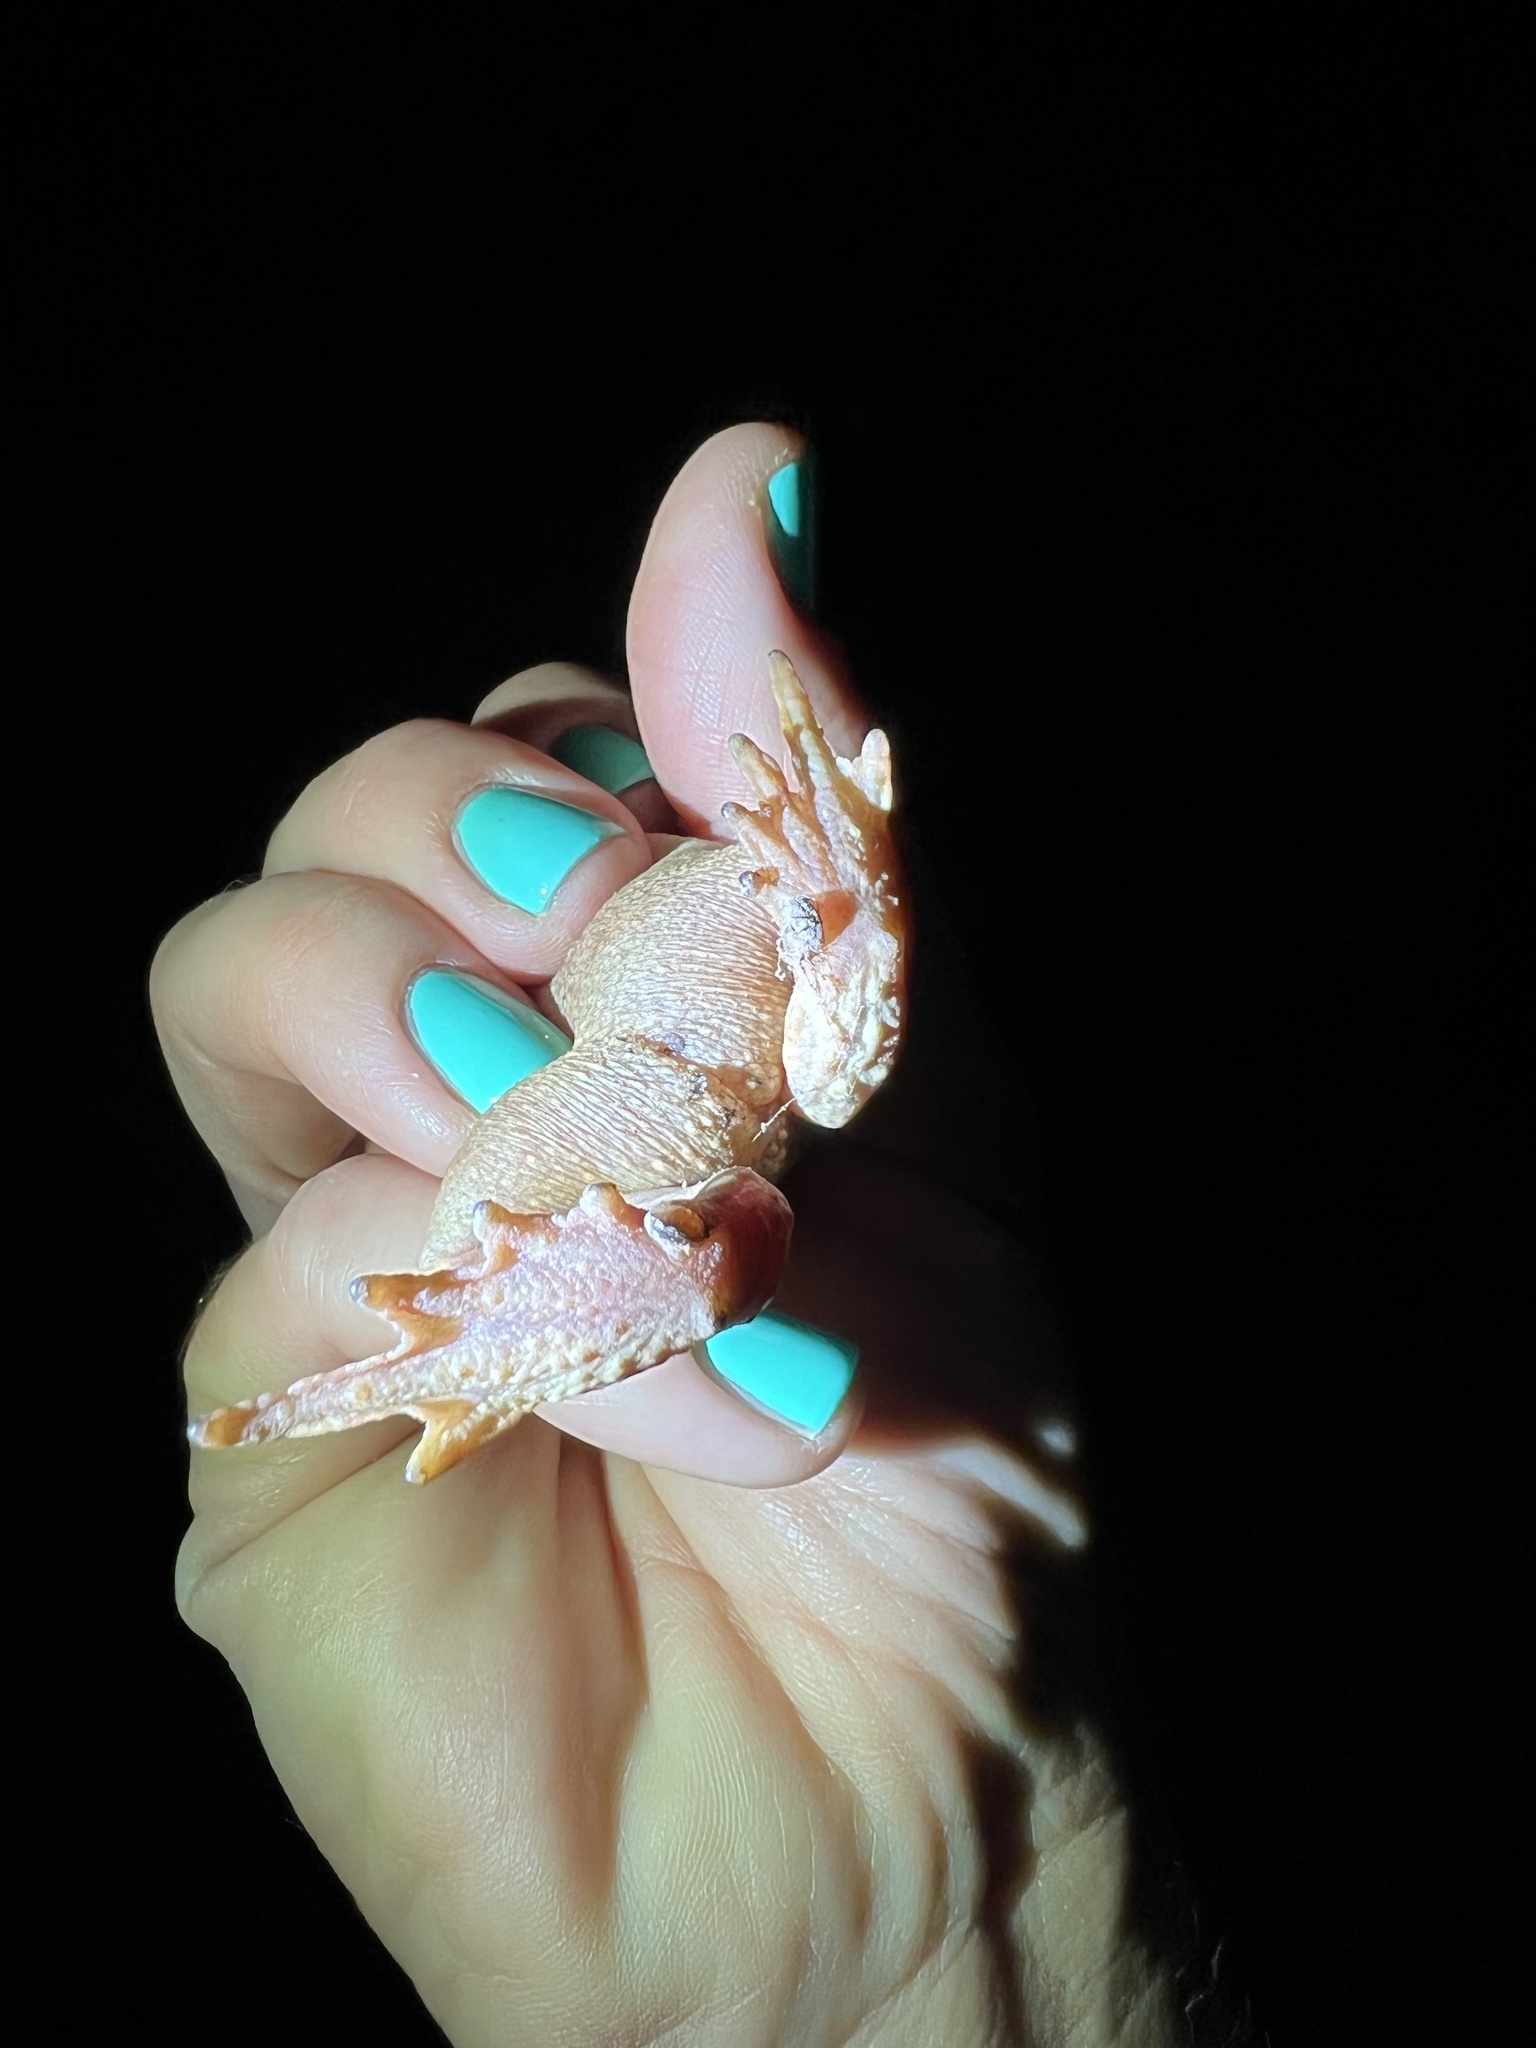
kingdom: Animalia
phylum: Chordata
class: Amphibia
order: Anura
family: Bufonidae
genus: Anaxyrus
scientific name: Anaxyrus woodhousii
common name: Woodhouse's toad
